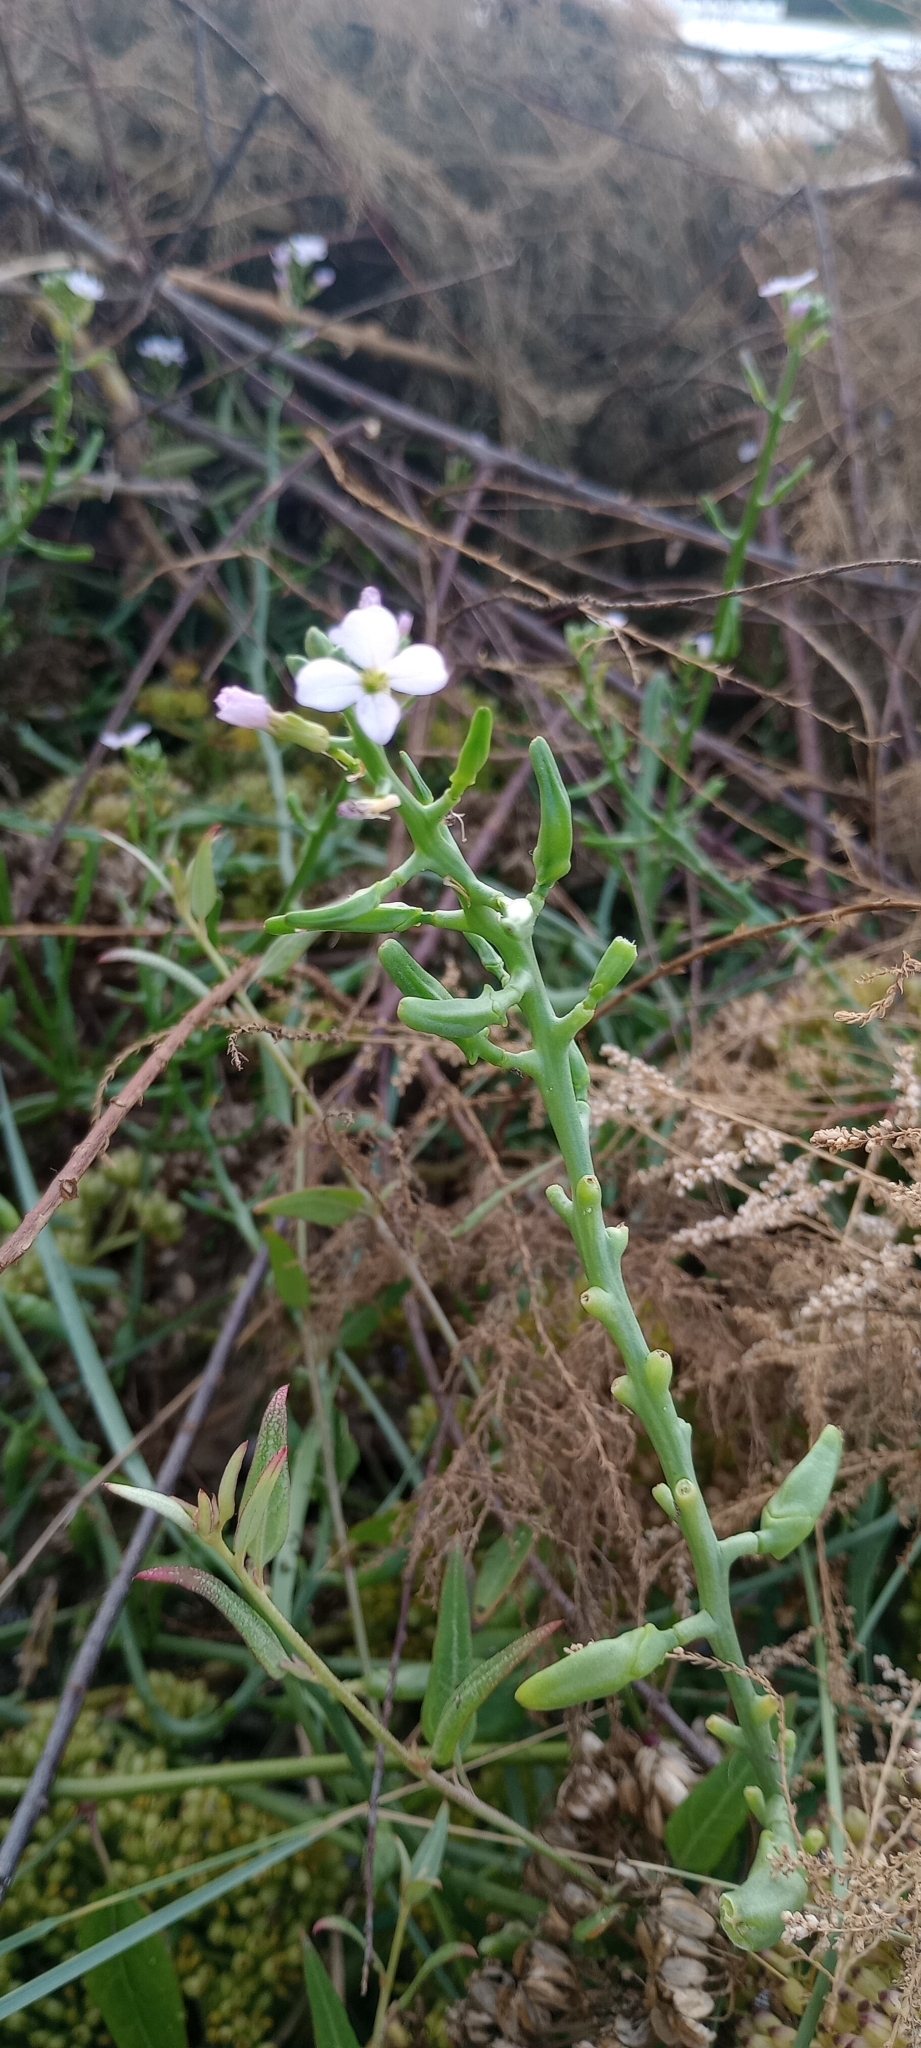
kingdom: Plantae
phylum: Tracheophyta
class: Magnoliopsida
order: Brassicales
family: Brassicaceae
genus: Cakile
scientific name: Cakile maritima
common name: Sea rocket
